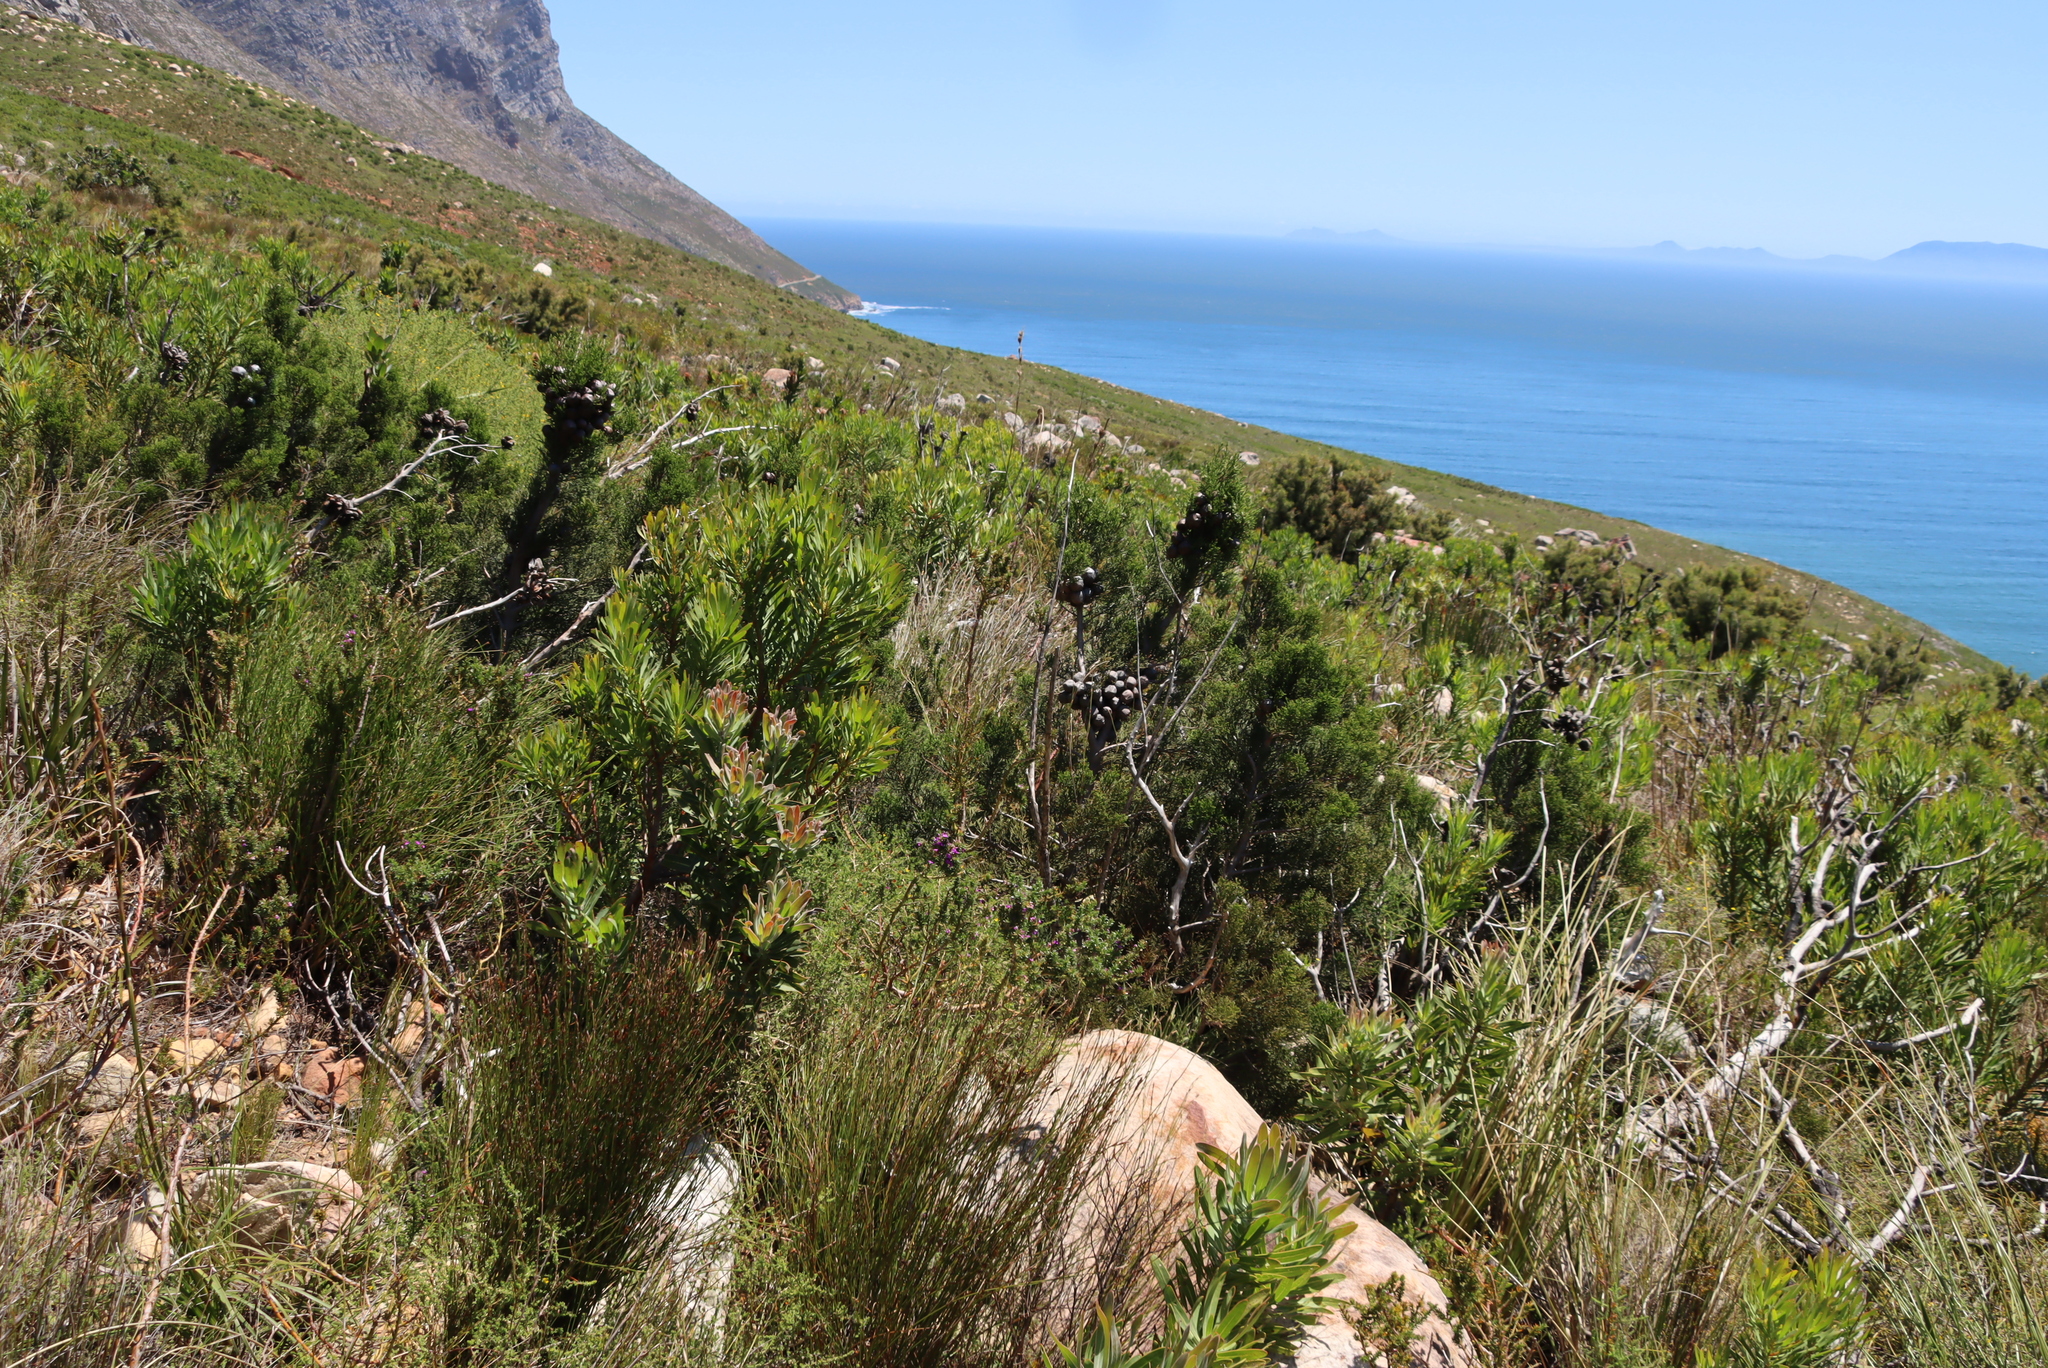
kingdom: Plantae
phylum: Tracheophyta
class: Pinopsida
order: Pinales
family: Cupressaceae
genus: Widdringtonia
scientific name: Widdringtonia nodiflora
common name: Cape cypress
